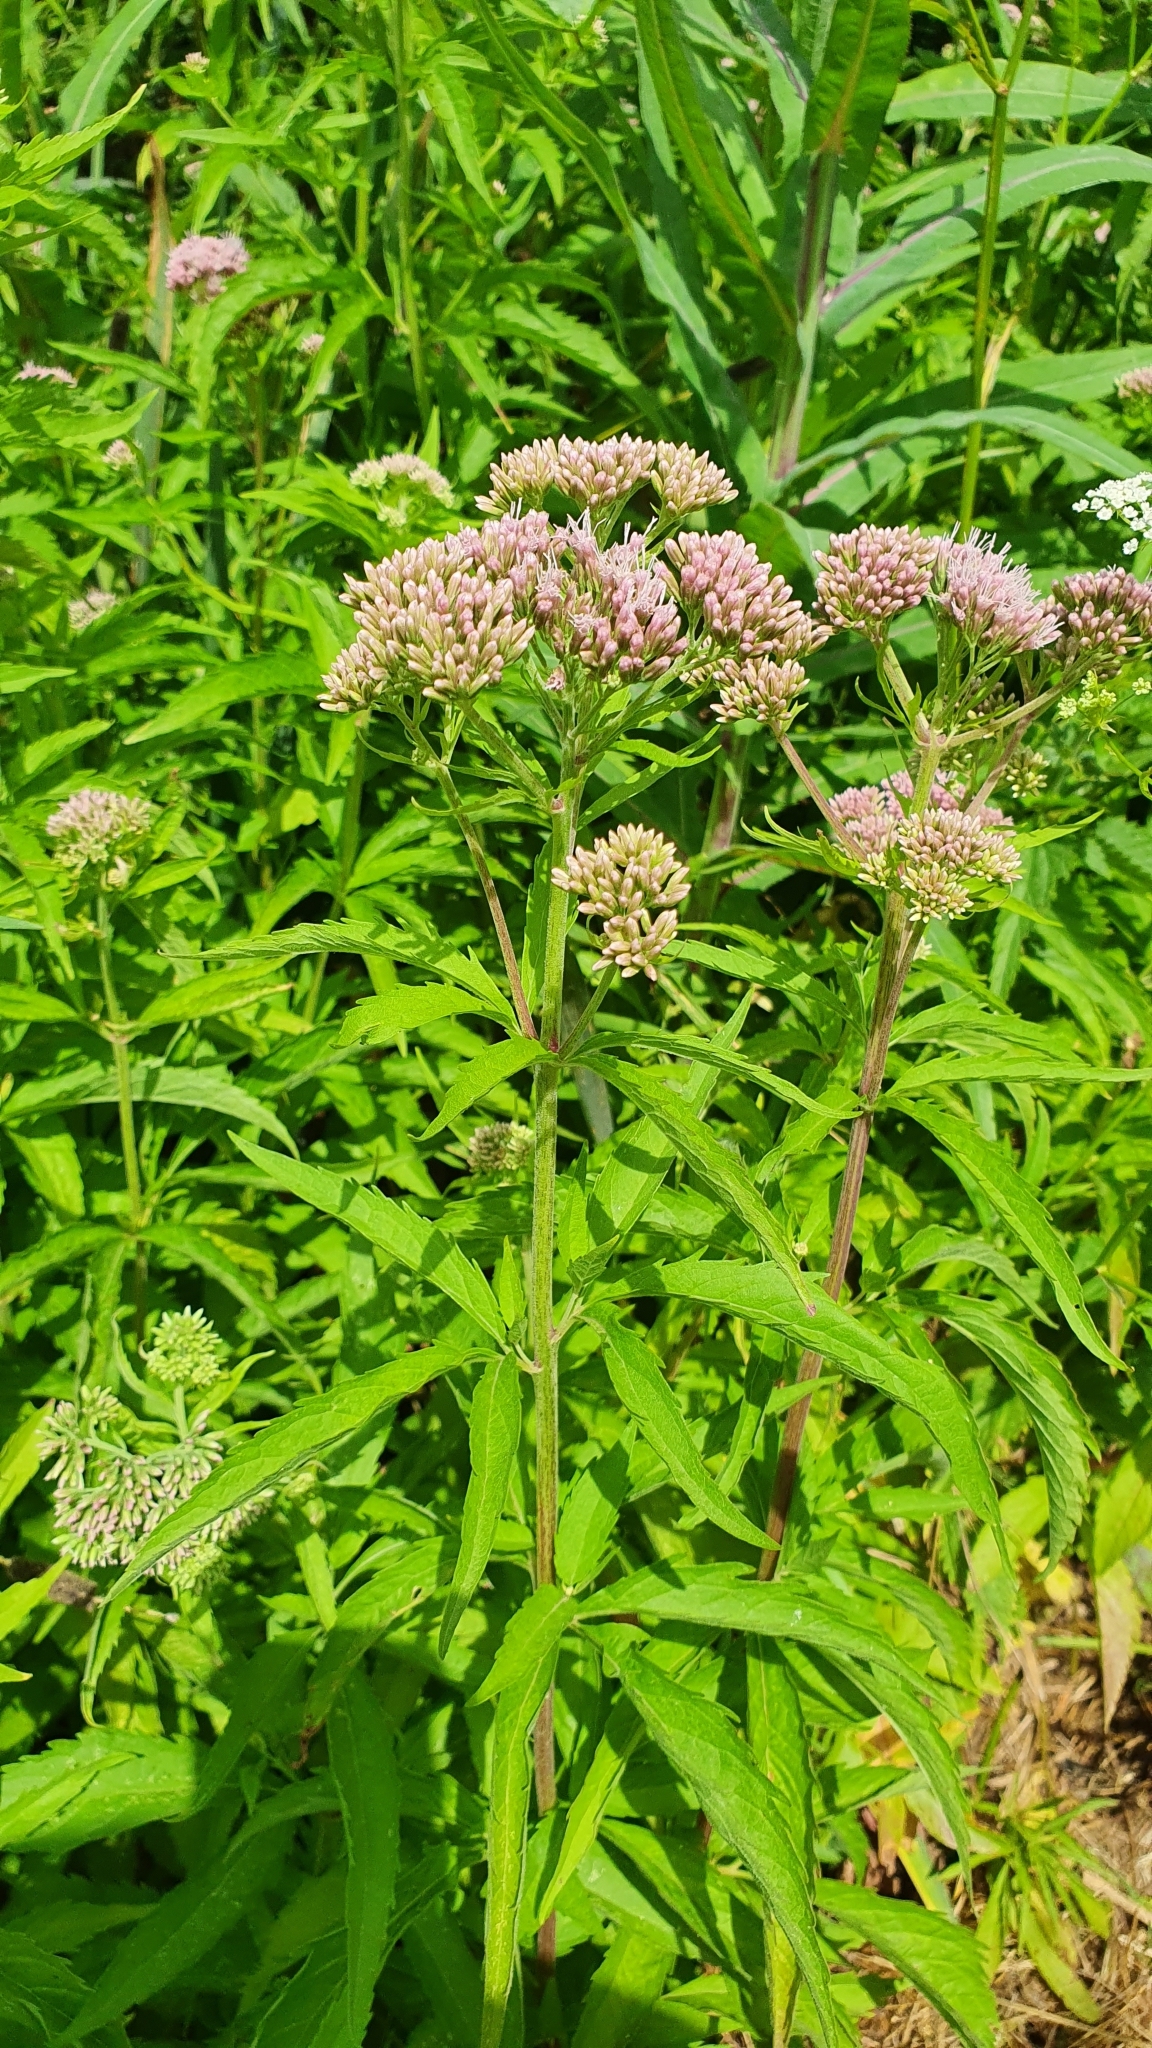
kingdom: Plantae
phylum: Tracheophyta
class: Magnoliopsida
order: Asterales
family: Asteraceae
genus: Eupatorium
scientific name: Eupatorium cannabinum
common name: Hemp-agrimony
